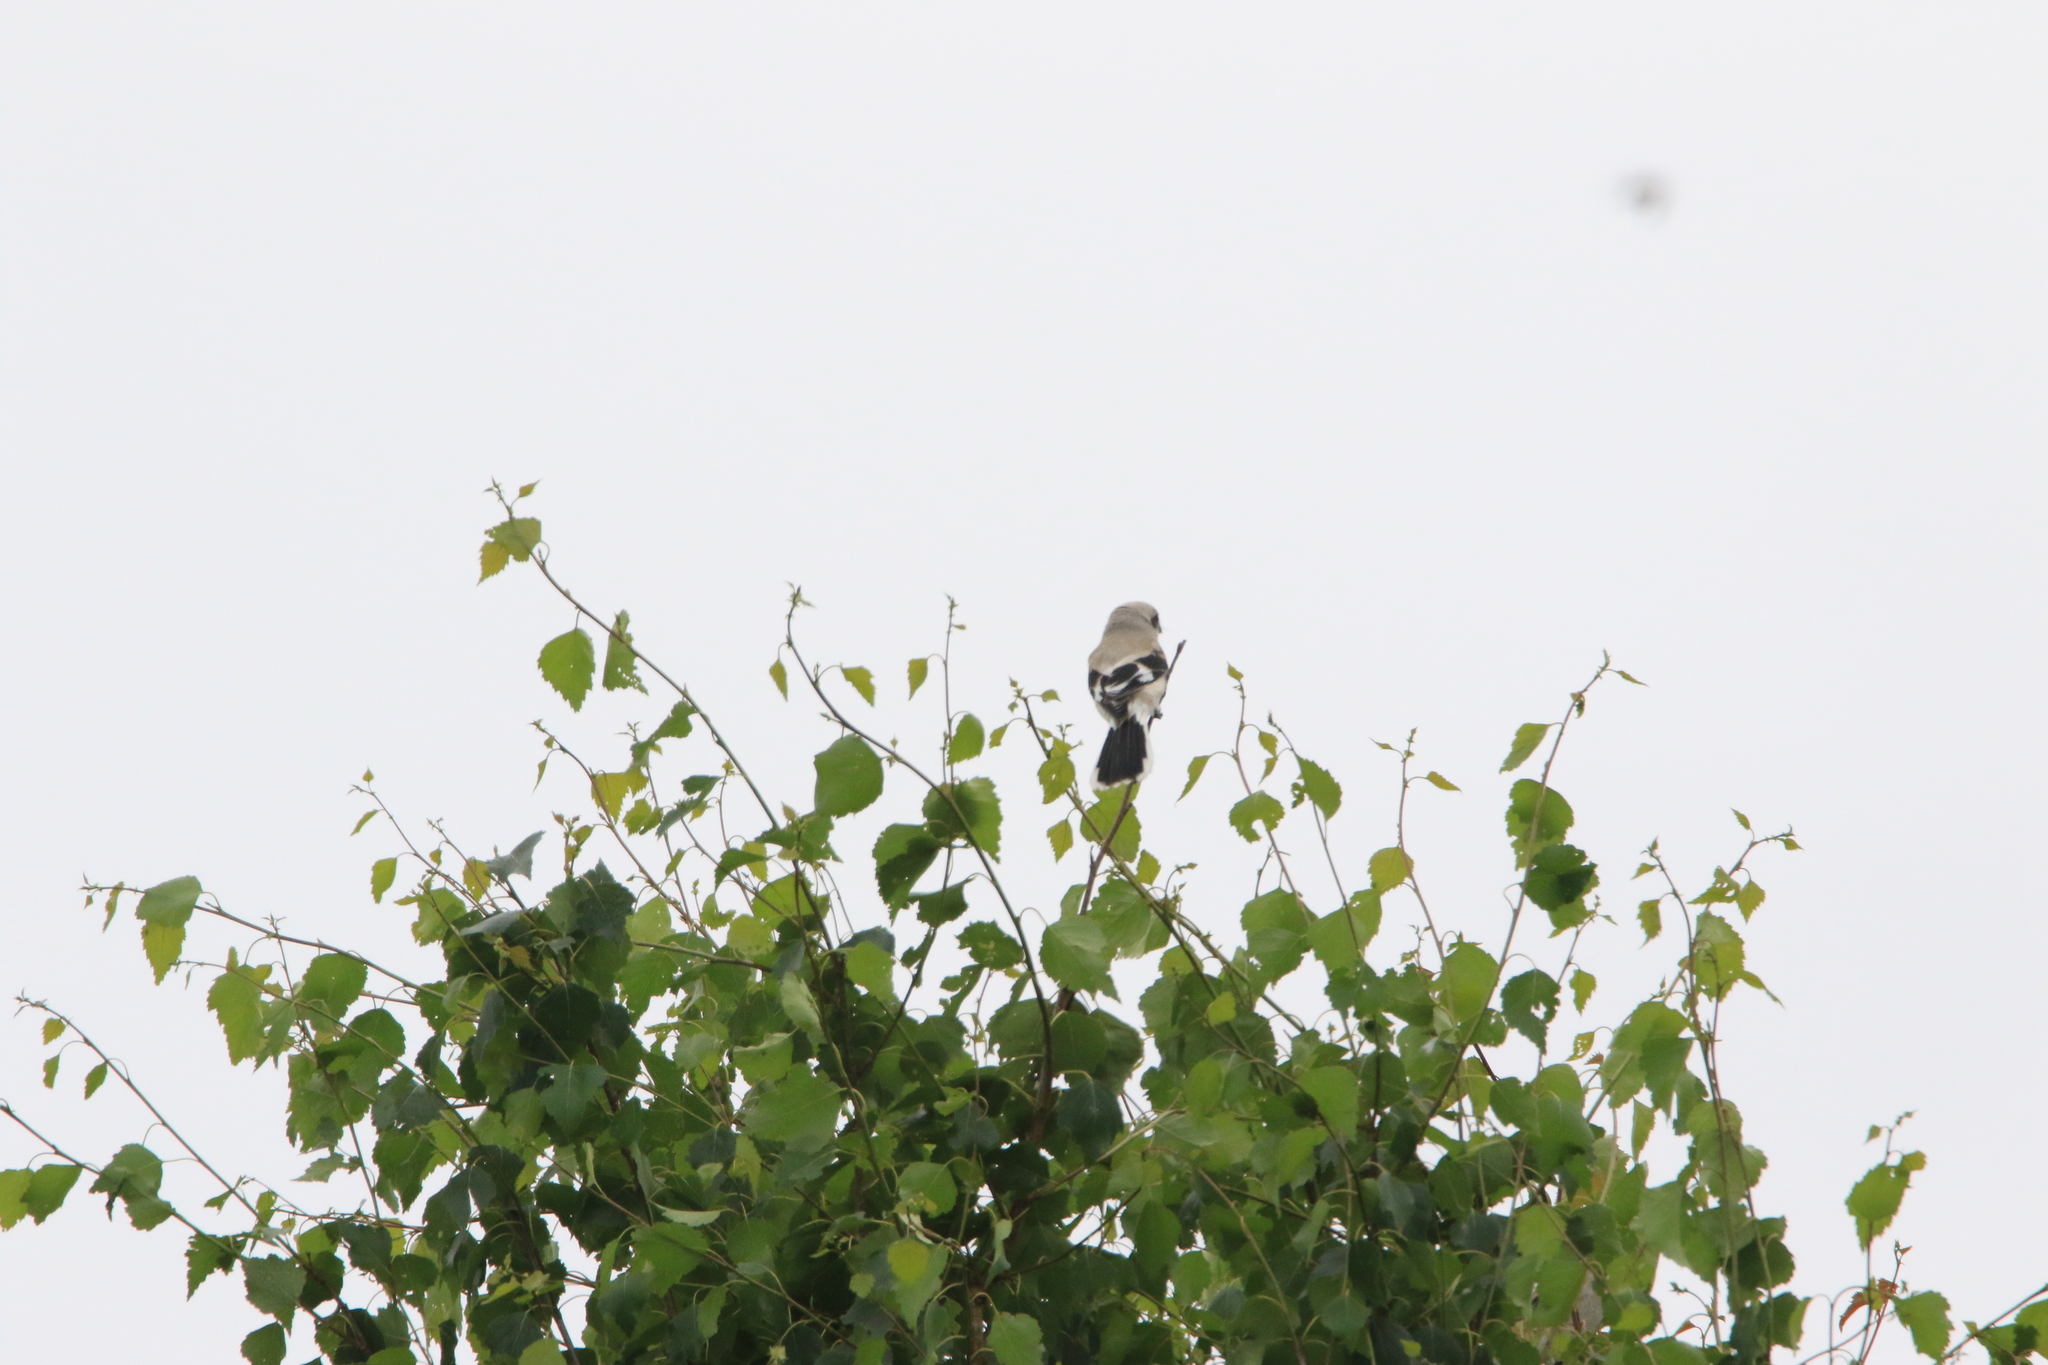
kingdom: Animalia
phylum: Chordata
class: Aves
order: Passeriformes
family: Laniidae
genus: Lanius
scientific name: Lanius excubitor
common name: Great grey shrike
